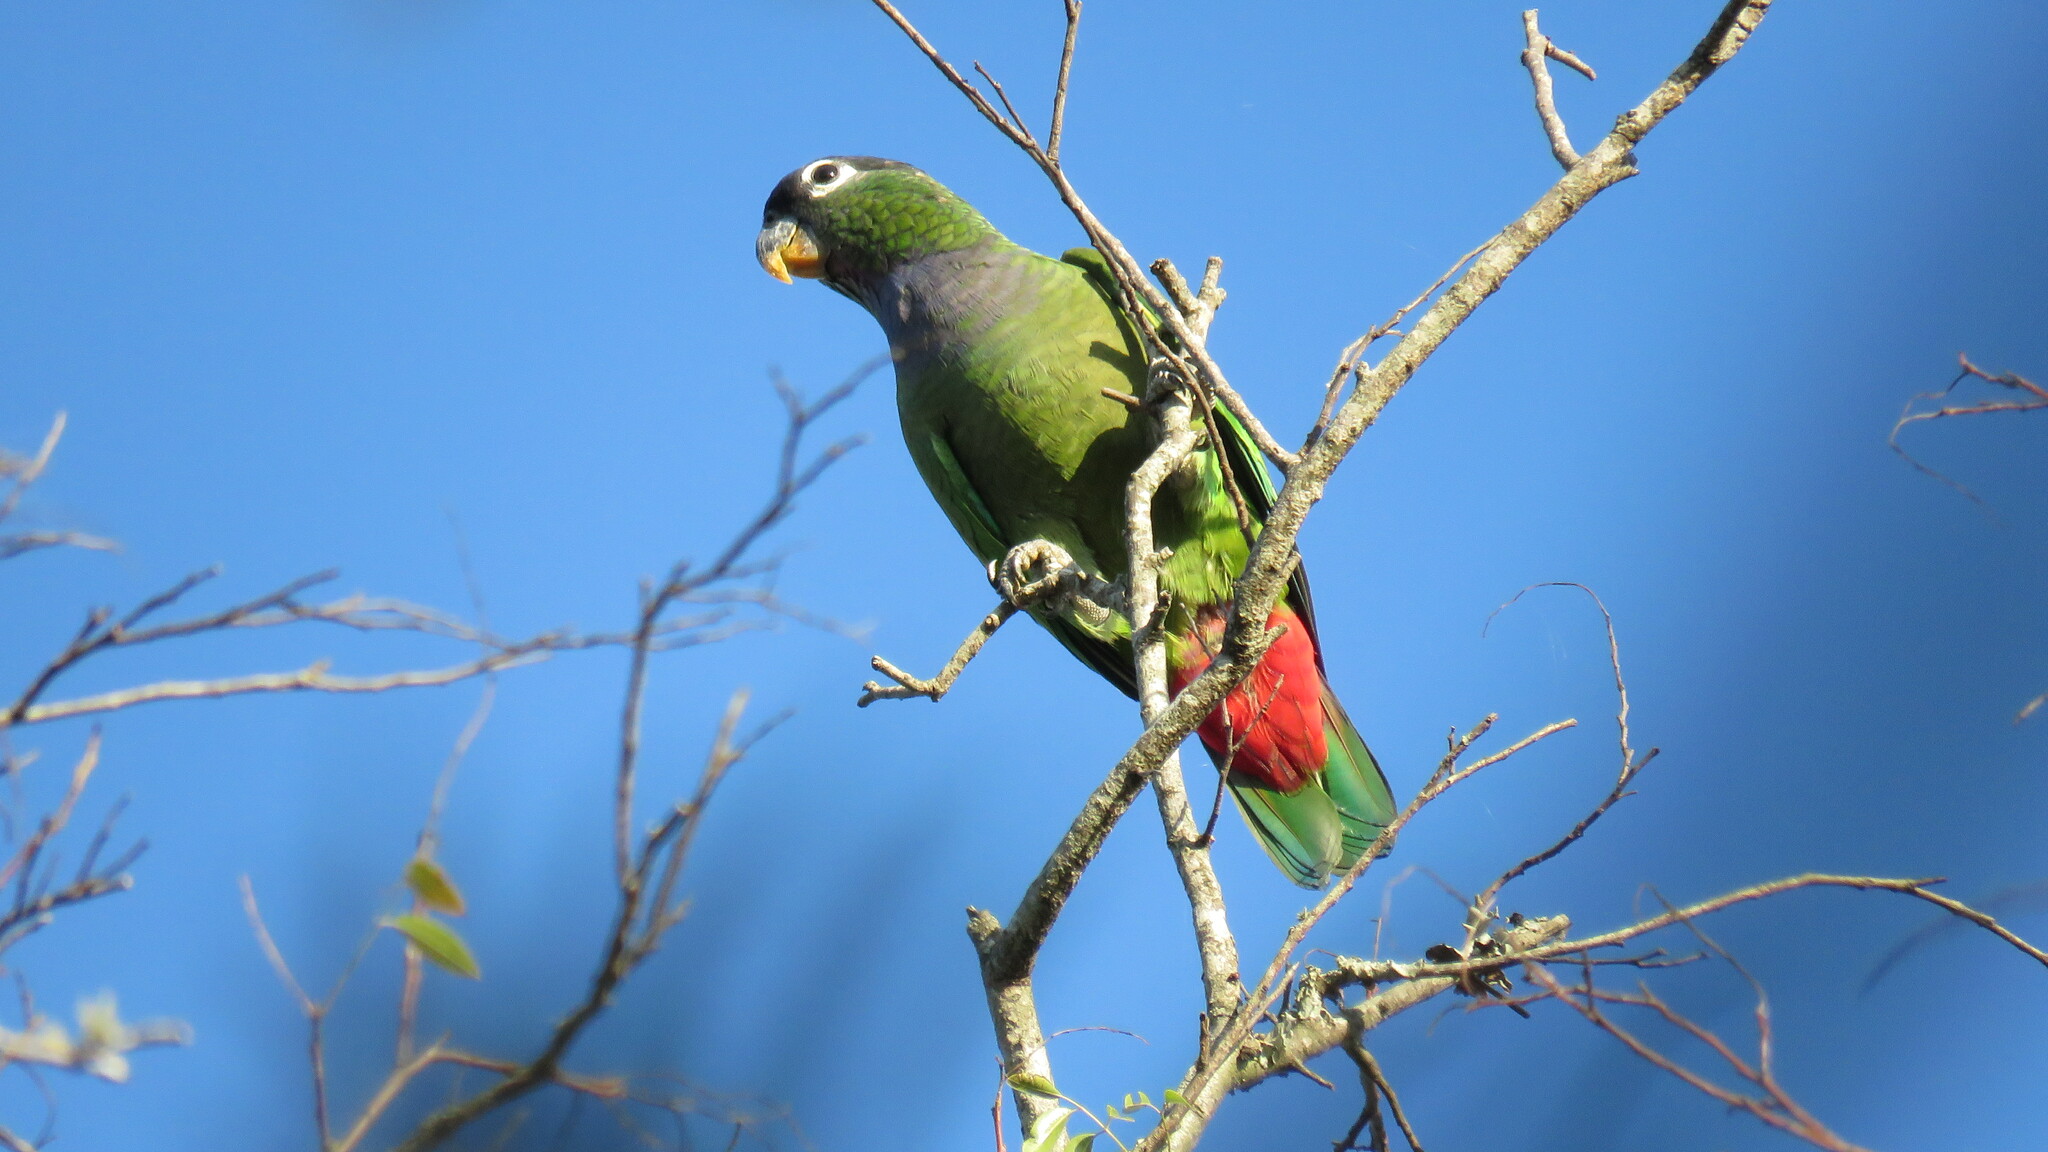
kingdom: Animalia
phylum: Chordata
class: Aves
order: Psittaciformes
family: Psittacidae
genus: Pionus
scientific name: Pionus maximiliani
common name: Scaly-headed parrot
